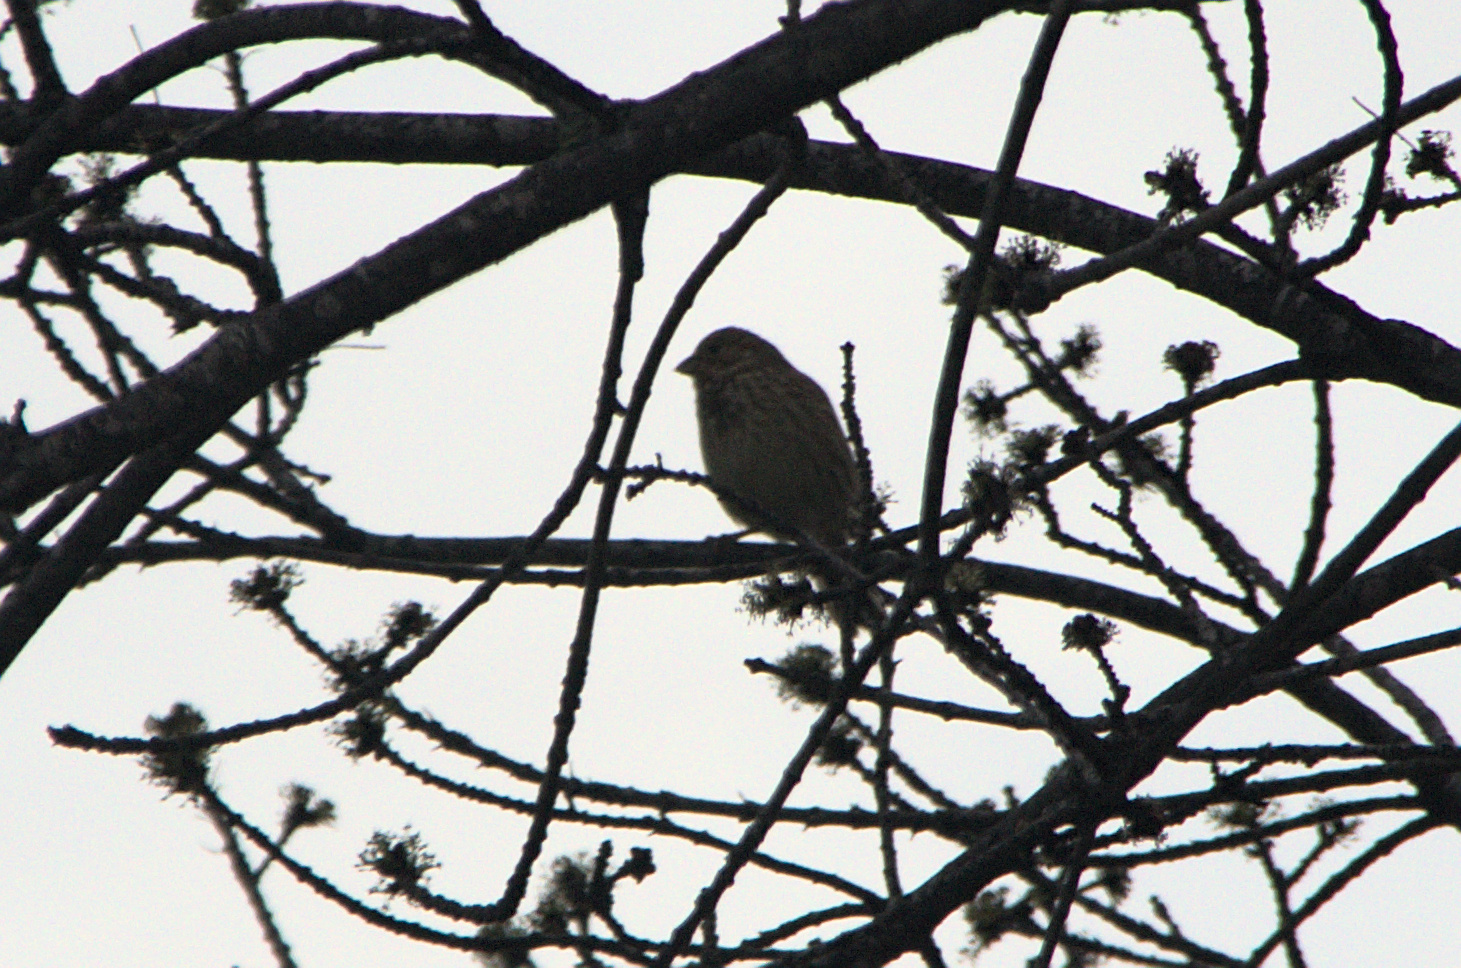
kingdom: Animalia
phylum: Chordata
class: Aves
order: Passeriformes
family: Emberizidae
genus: Emberiza
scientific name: Emberiza calandra
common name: Corn bunting
